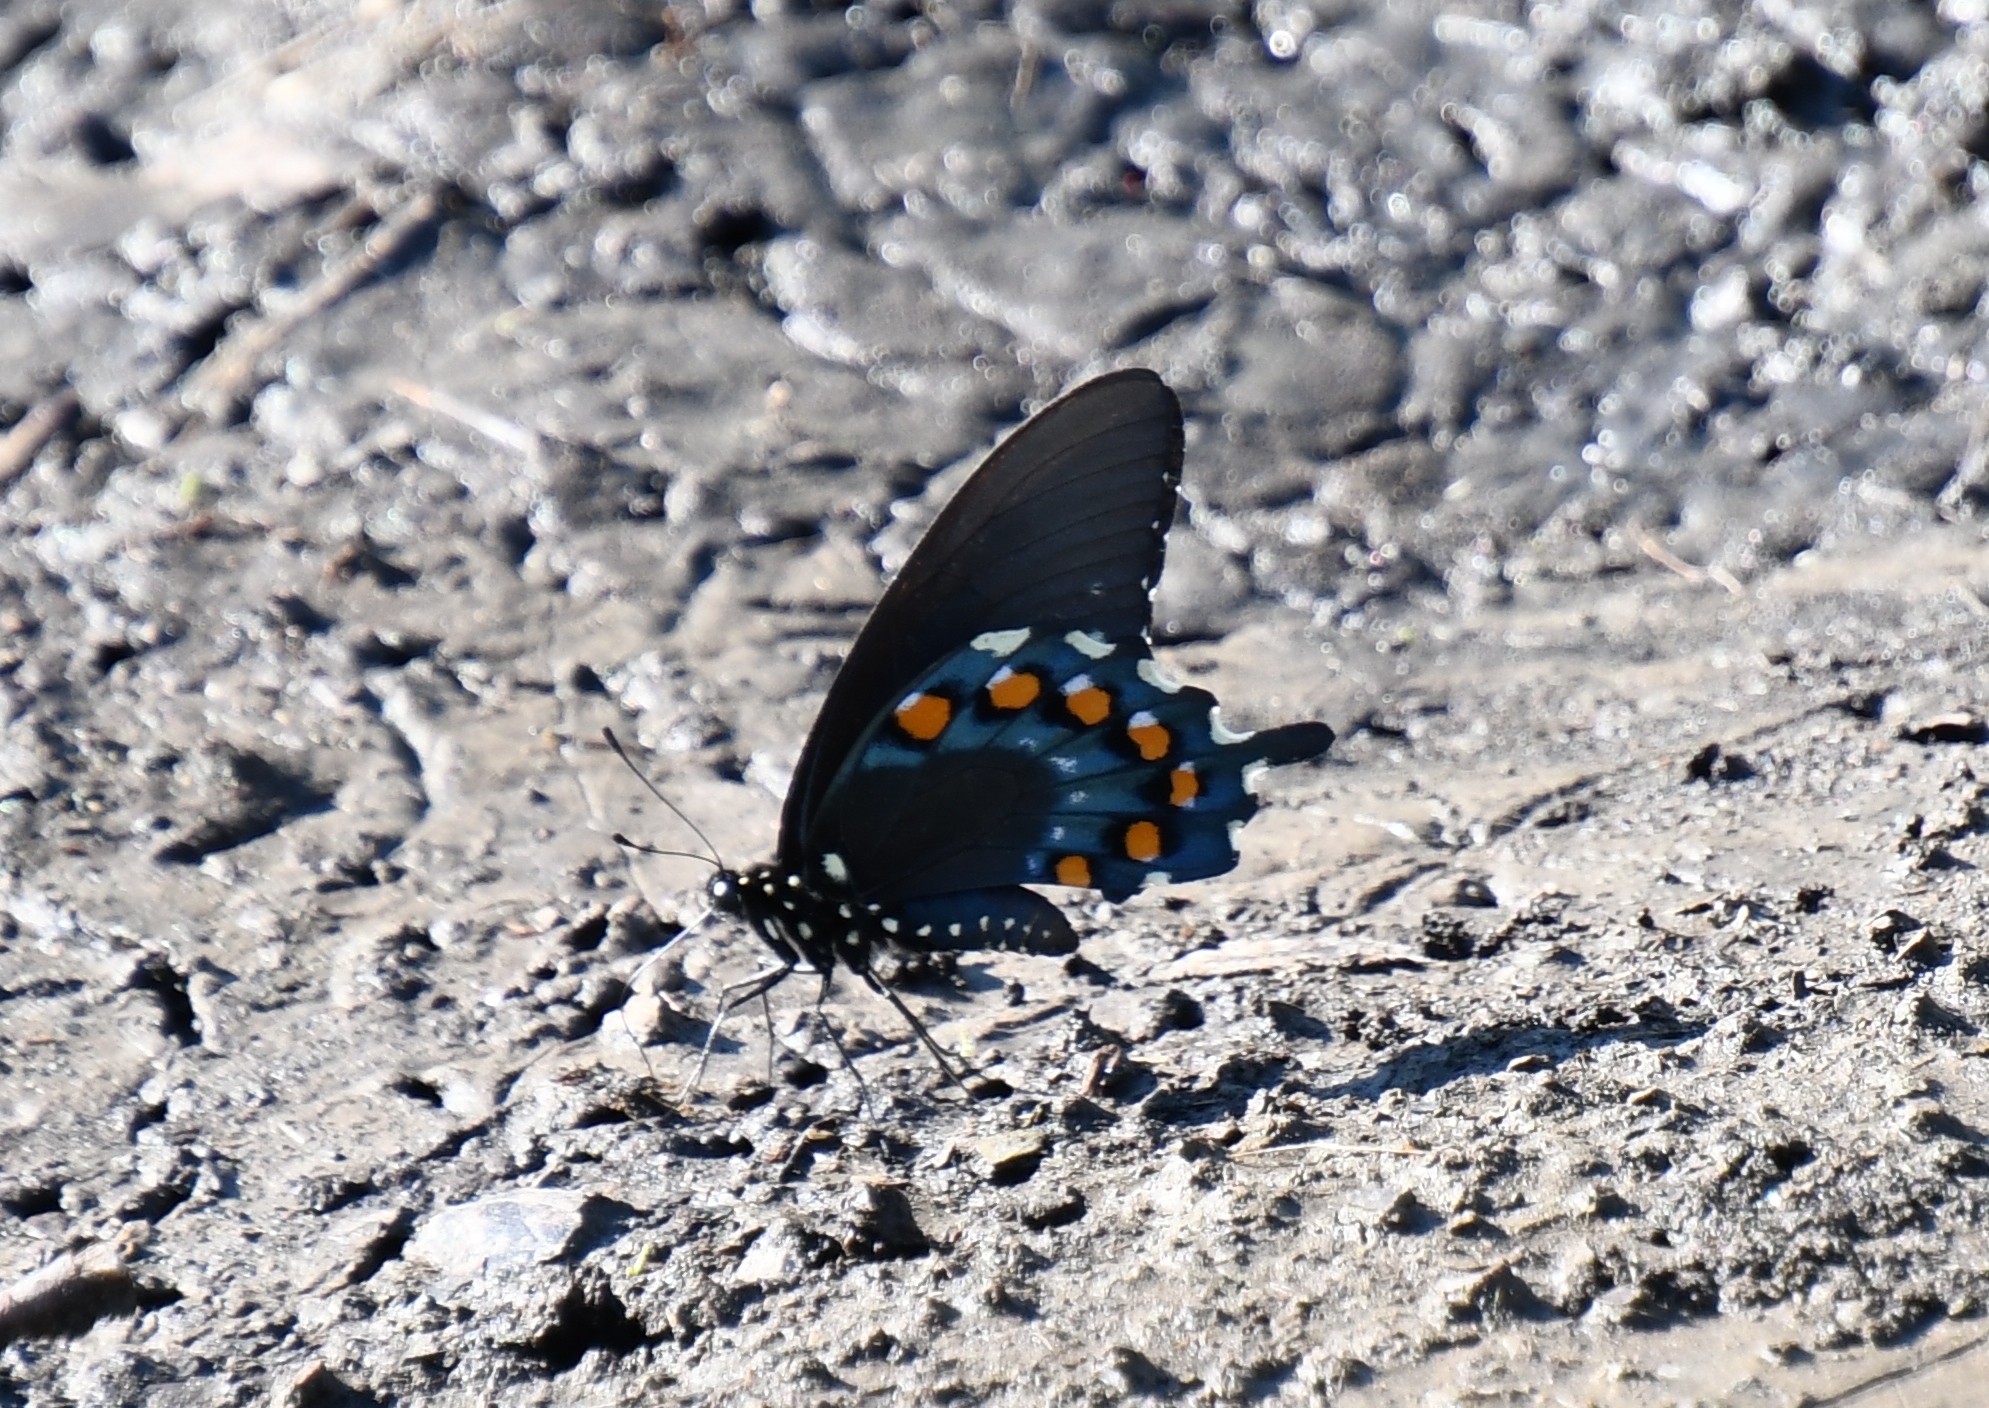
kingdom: Animalia
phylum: Arthropoda
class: Insecta
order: Lepidoptera
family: Papilionidae
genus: Battus
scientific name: Battus philenor
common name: Pipevine swallowtail
